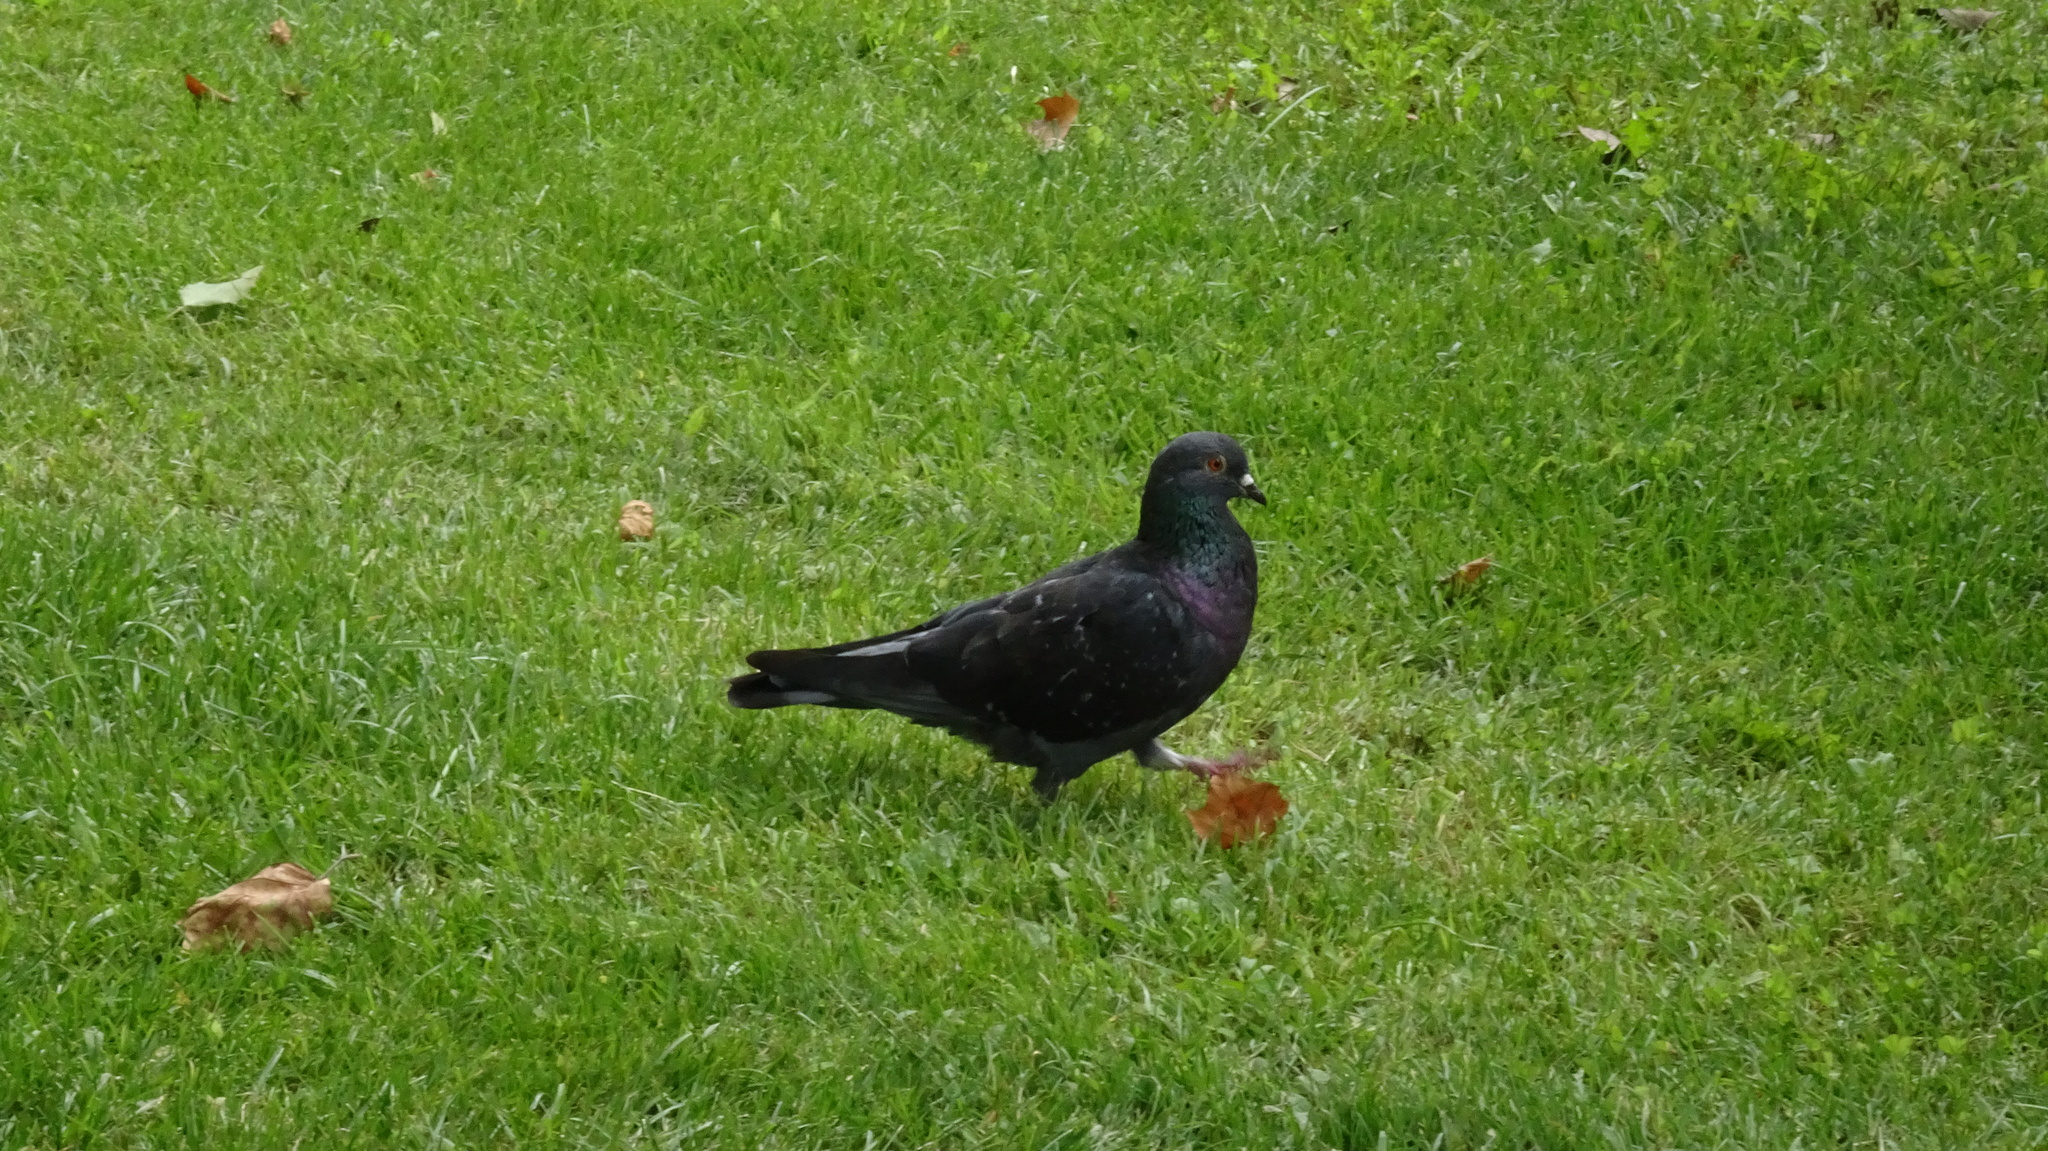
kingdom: Animalia
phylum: Chordata
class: Aves
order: Columbiformes
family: Columbidae
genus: Columba
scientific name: Columba livia
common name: Rock pigeon
